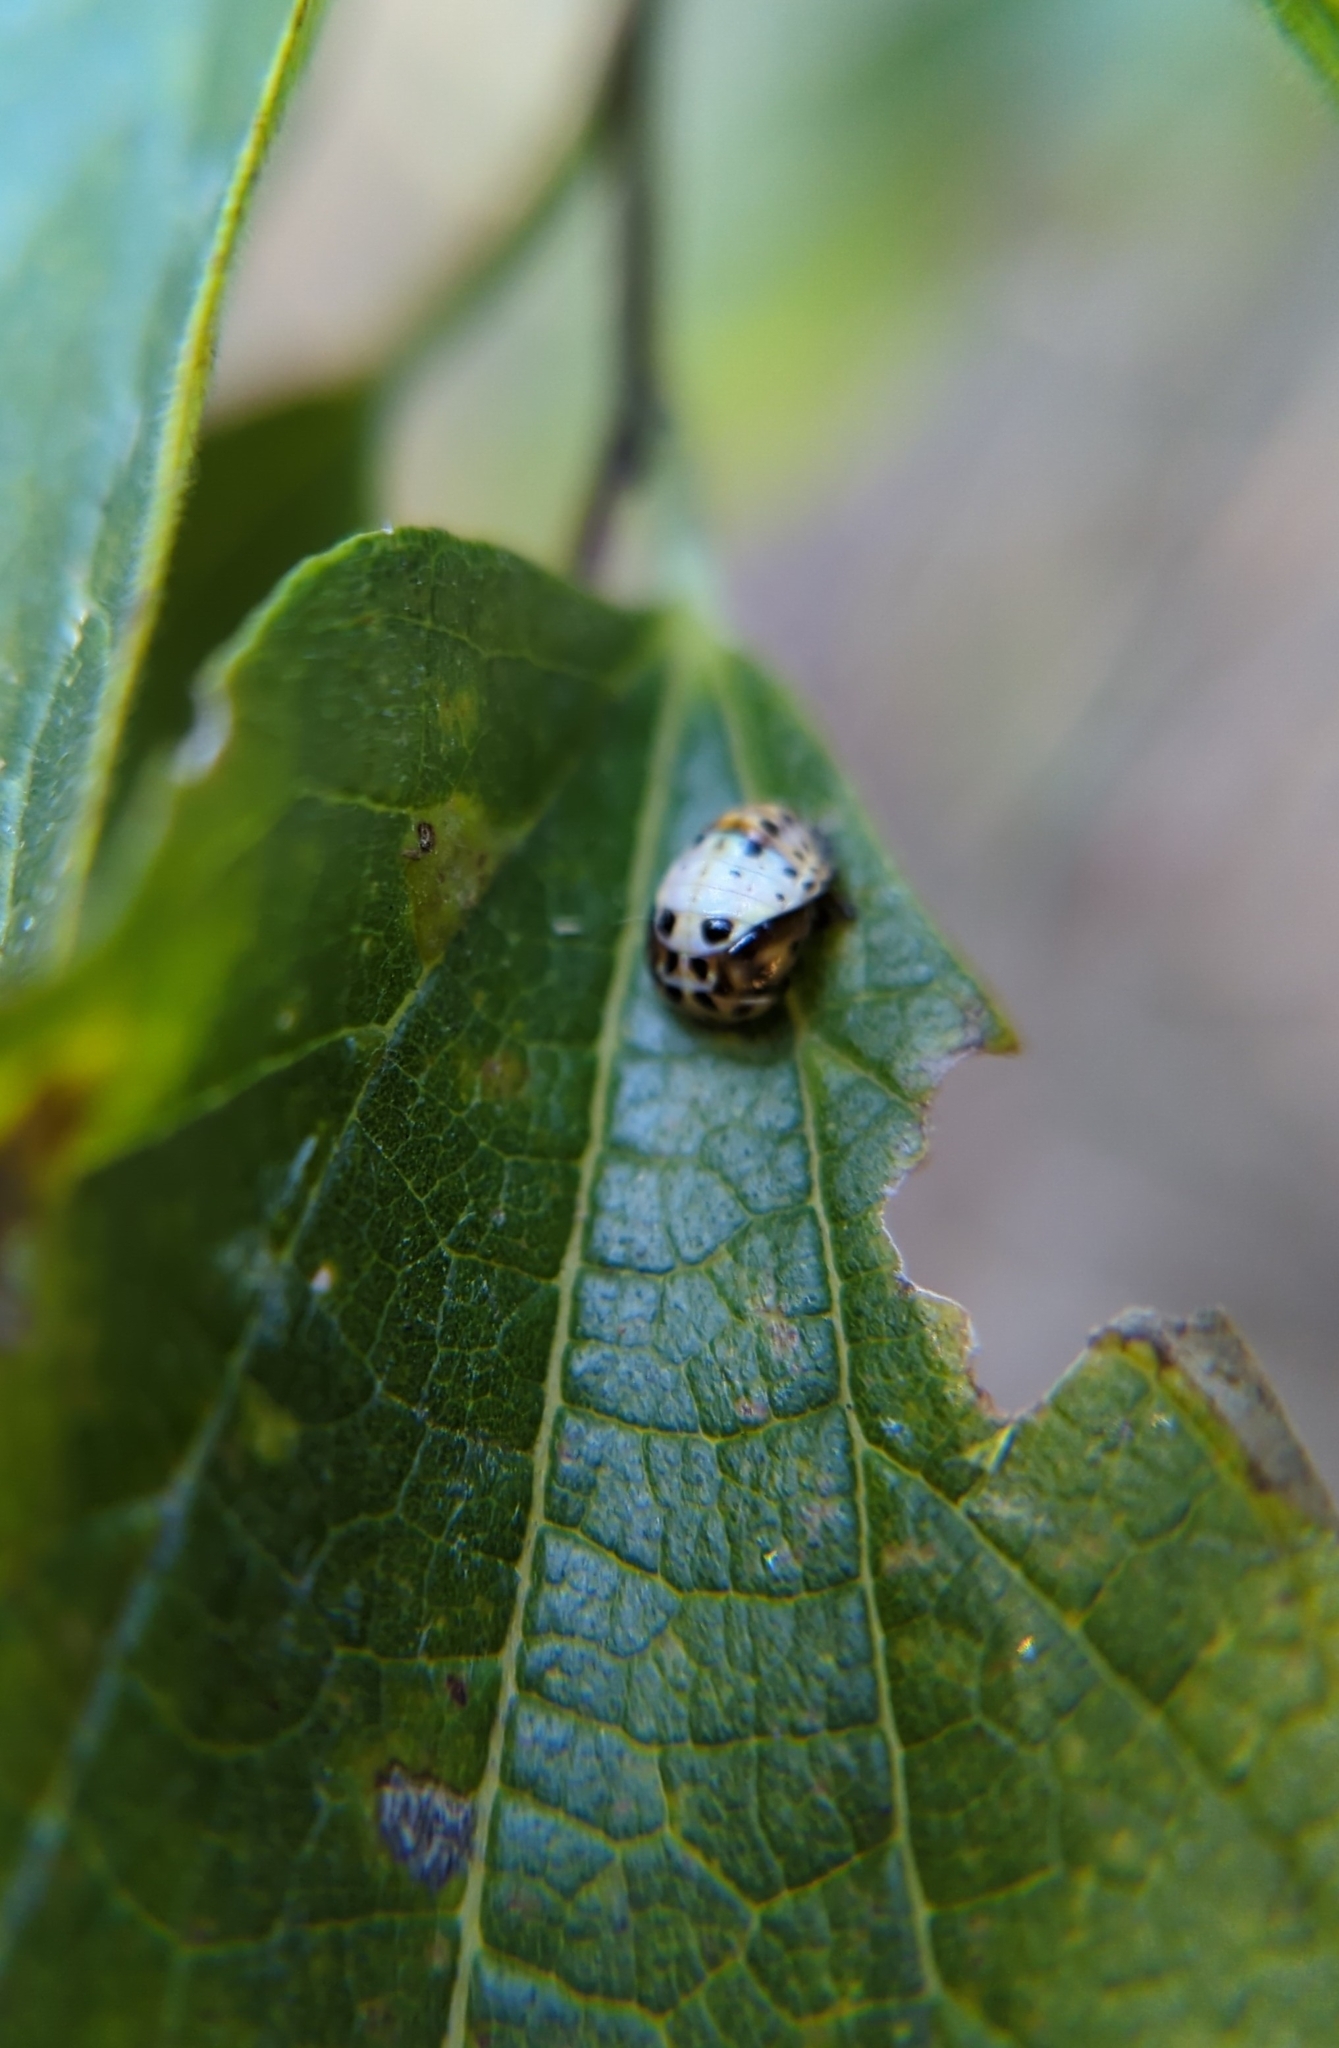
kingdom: Animalia
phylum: Arthropoda
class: Insecta
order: Coleoptera
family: Coccinellidae
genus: Olla
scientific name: Olla v-nigrum
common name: Ashy gray lady beetle
